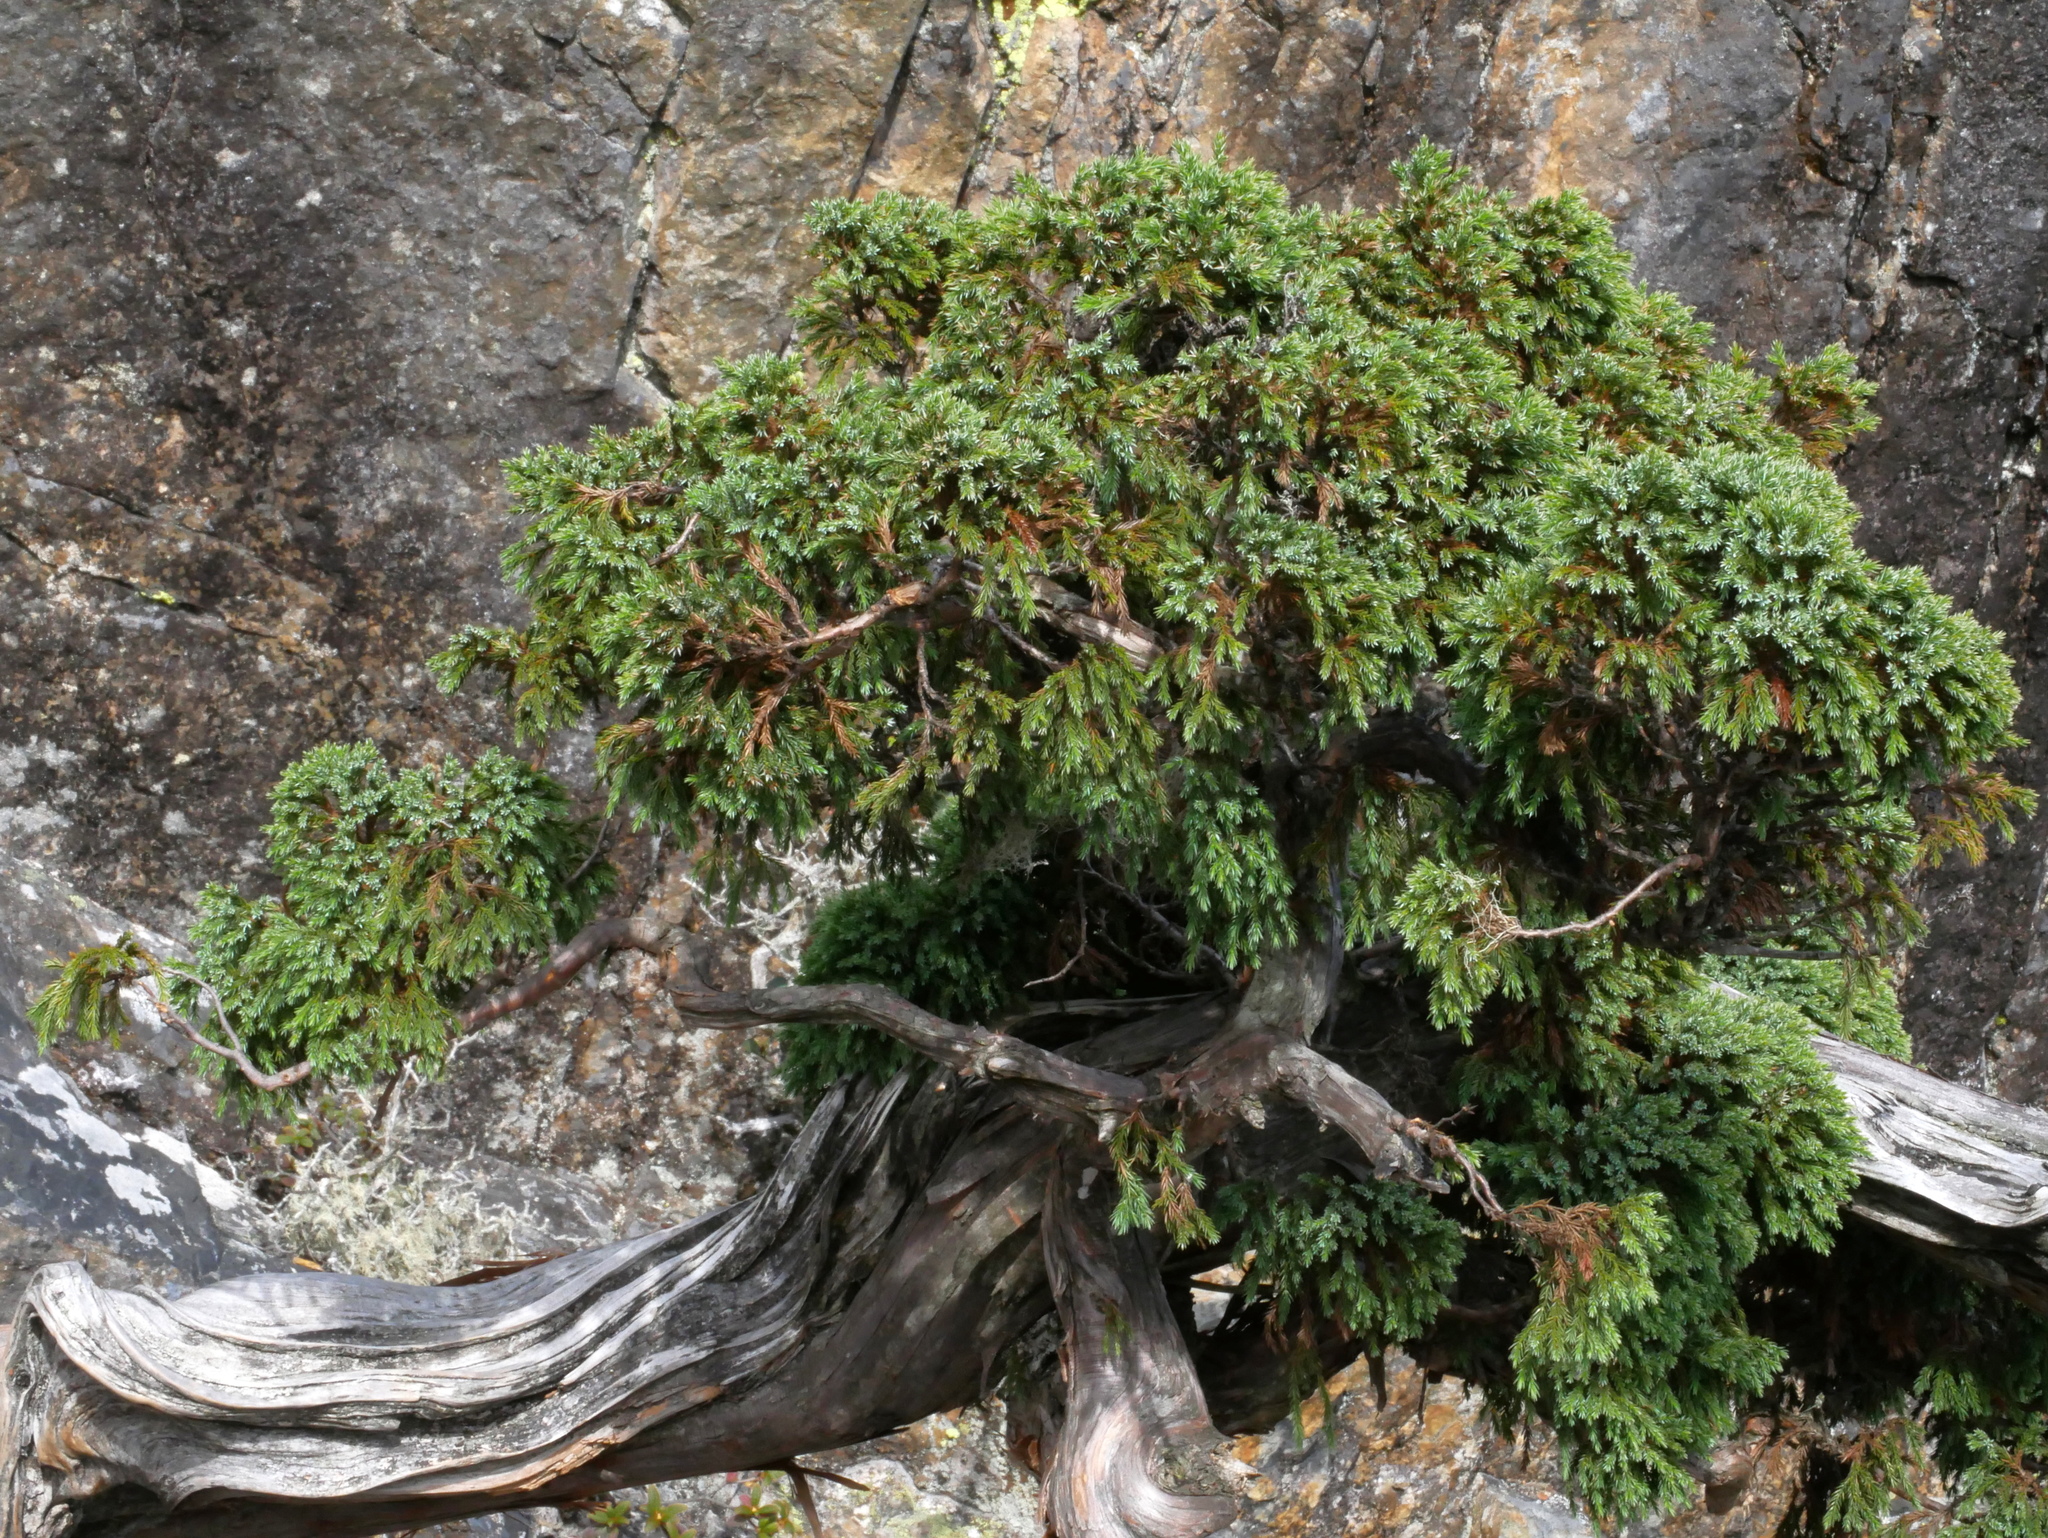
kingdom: Plantae
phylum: Tracheophyta
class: Pinopsida
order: Pinales
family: Cupressaceae
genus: Juniperus
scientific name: Juniperus squamata
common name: Flaky juniper
